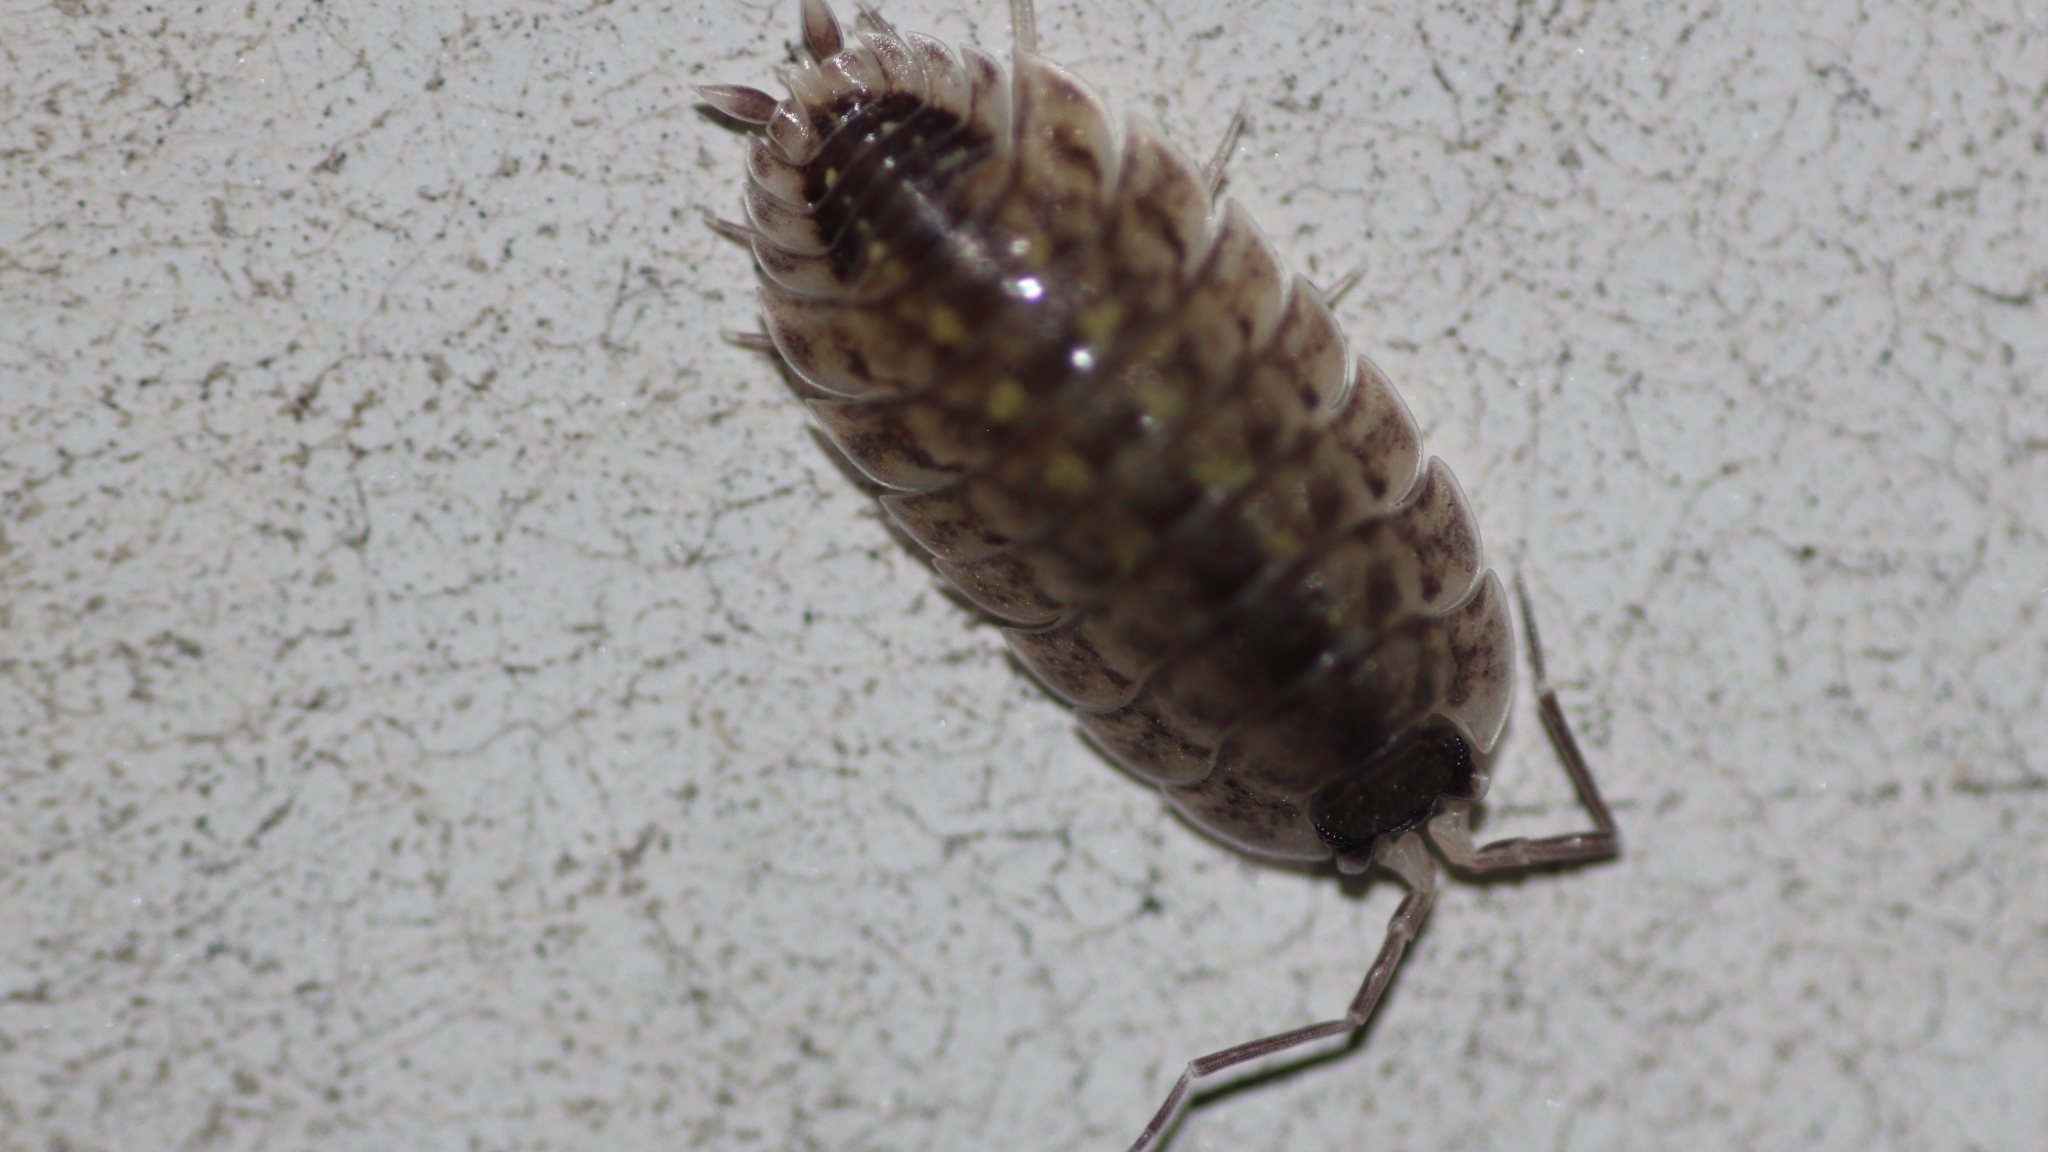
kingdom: Animalia
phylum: Arthropoda
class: Malacostraca
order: Isopoda
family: Porcellionidae
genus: Porcellio
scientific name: Porcellio spinicornis
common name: Painted woodlouse
